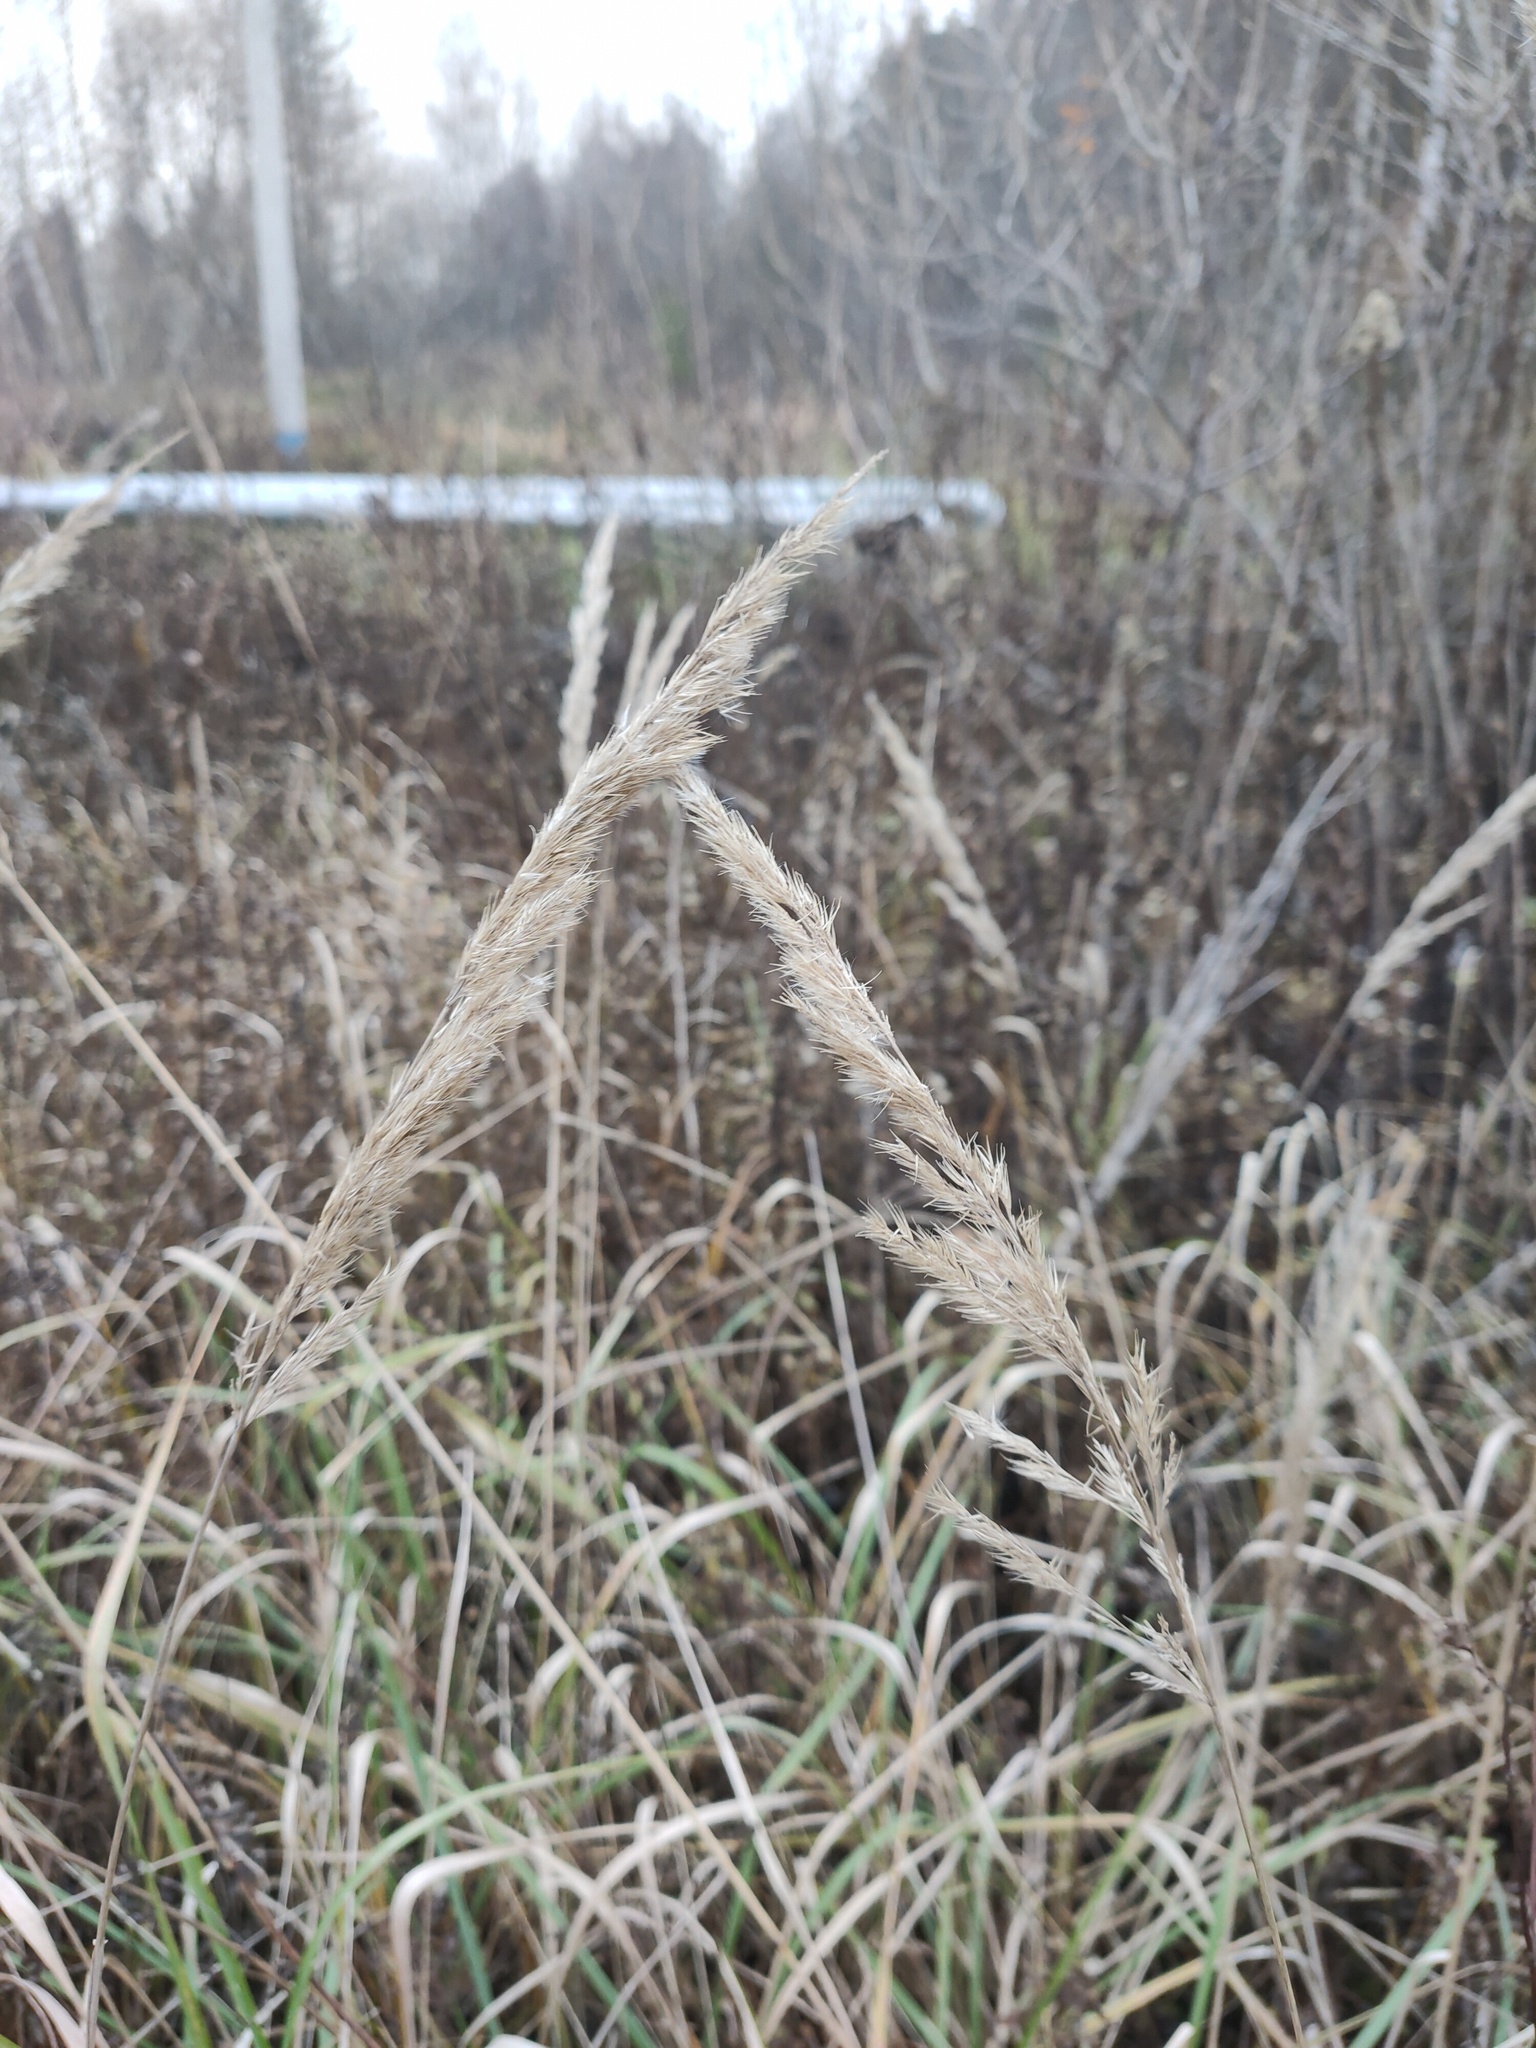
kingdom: Plantae
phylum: Tracheophyta
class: Liliopsida
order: Poales
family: Poaceae
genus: Calamagrostis
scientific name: Calamagrostis epigejos
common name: Wood small-reed
